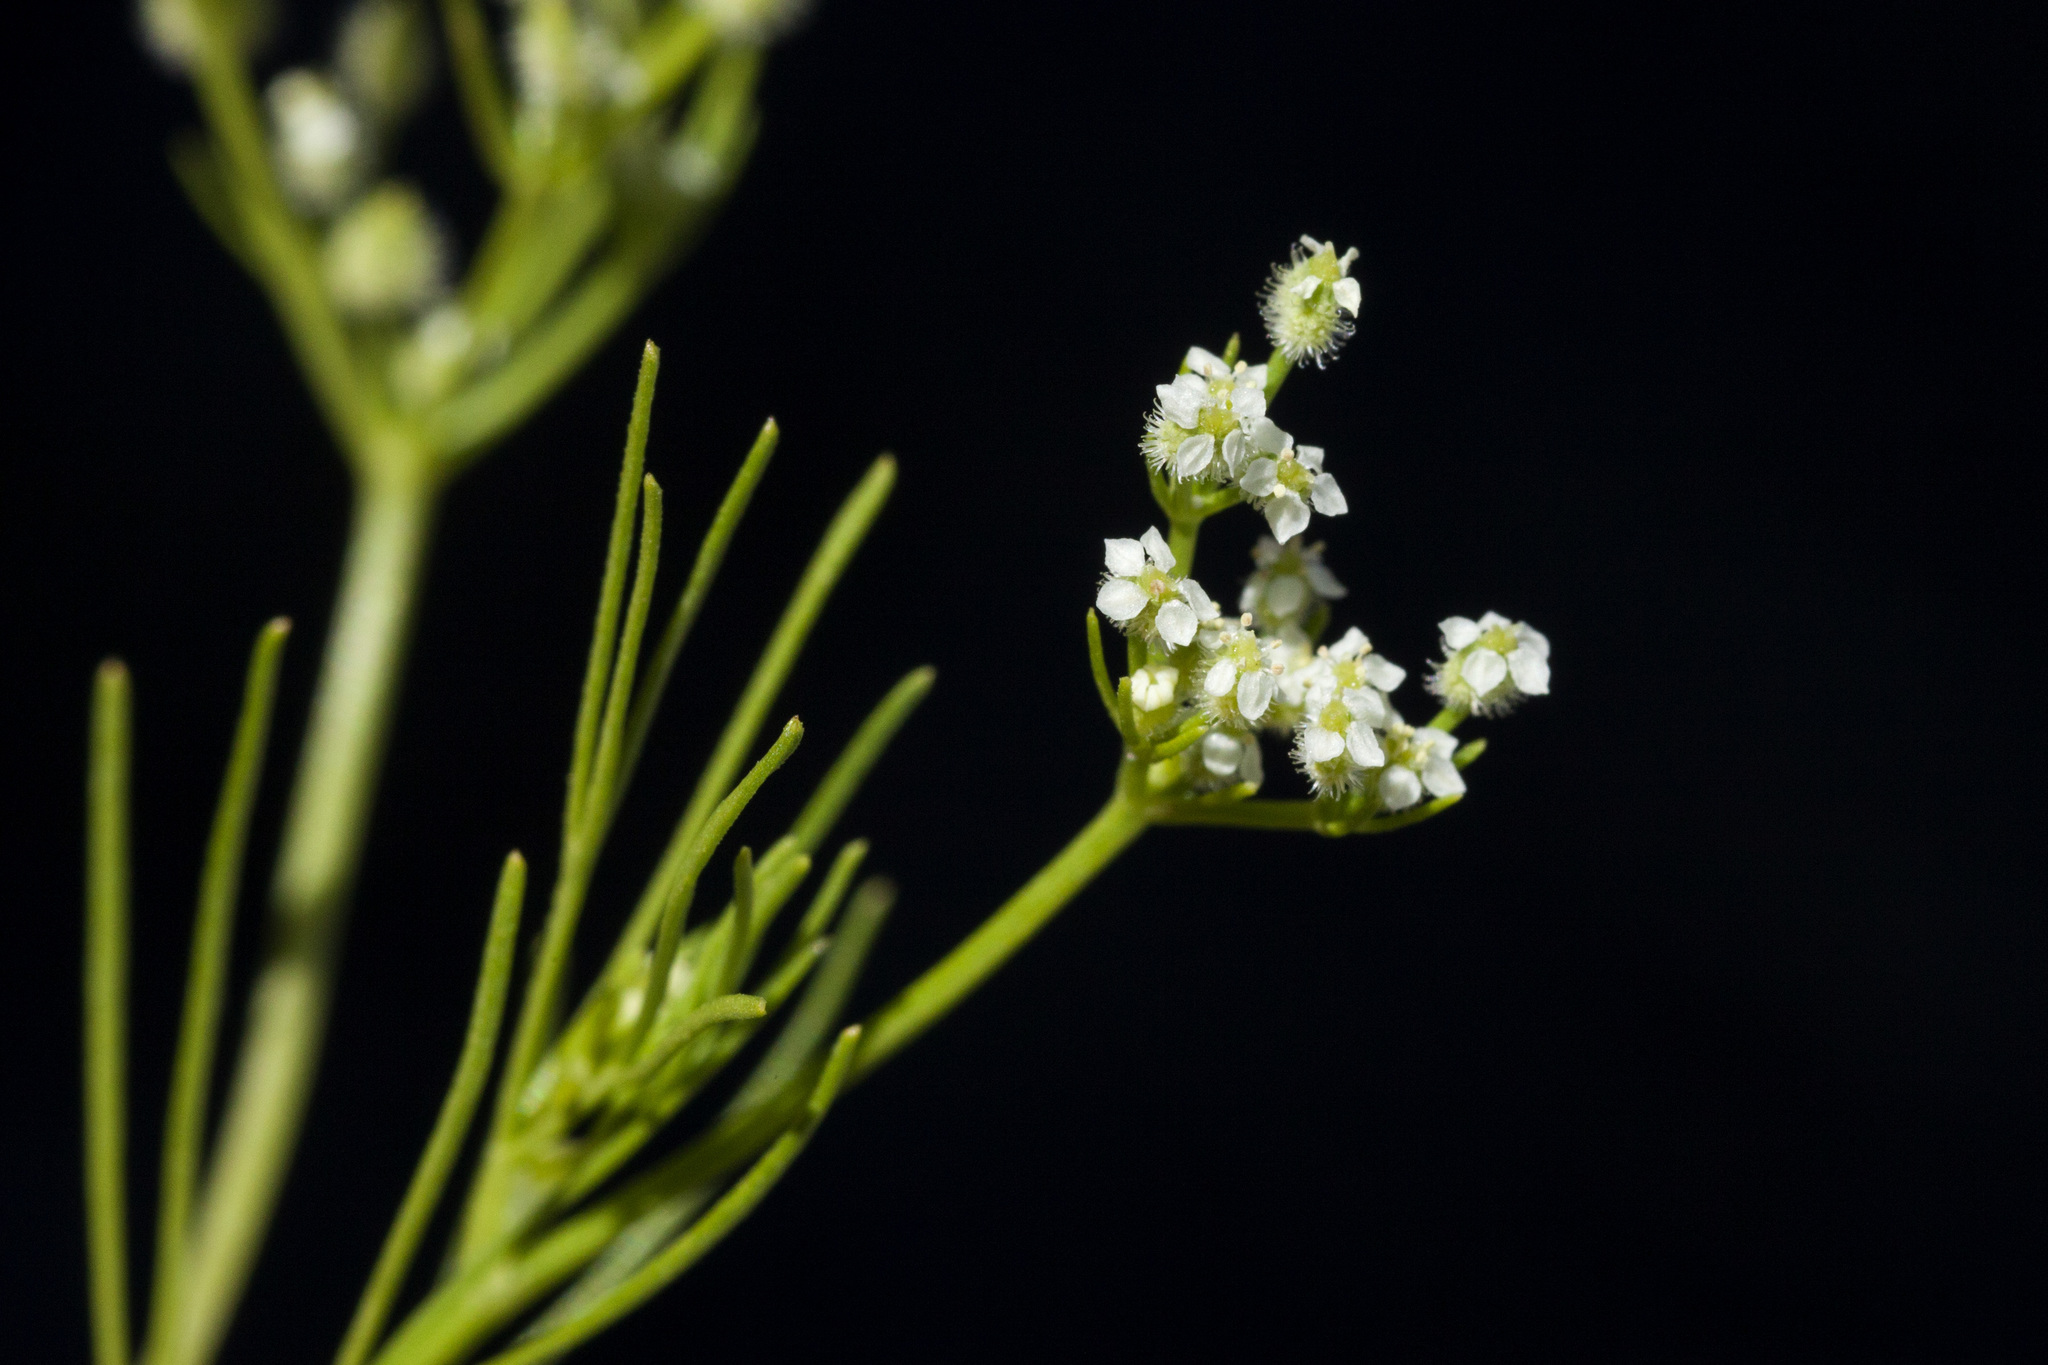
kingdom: Plantae
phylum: Tracheophyta
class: Magnoliopsida
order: Apiales
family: Apiaceae
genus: Spermolepis
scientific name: Spermolepis echinata
